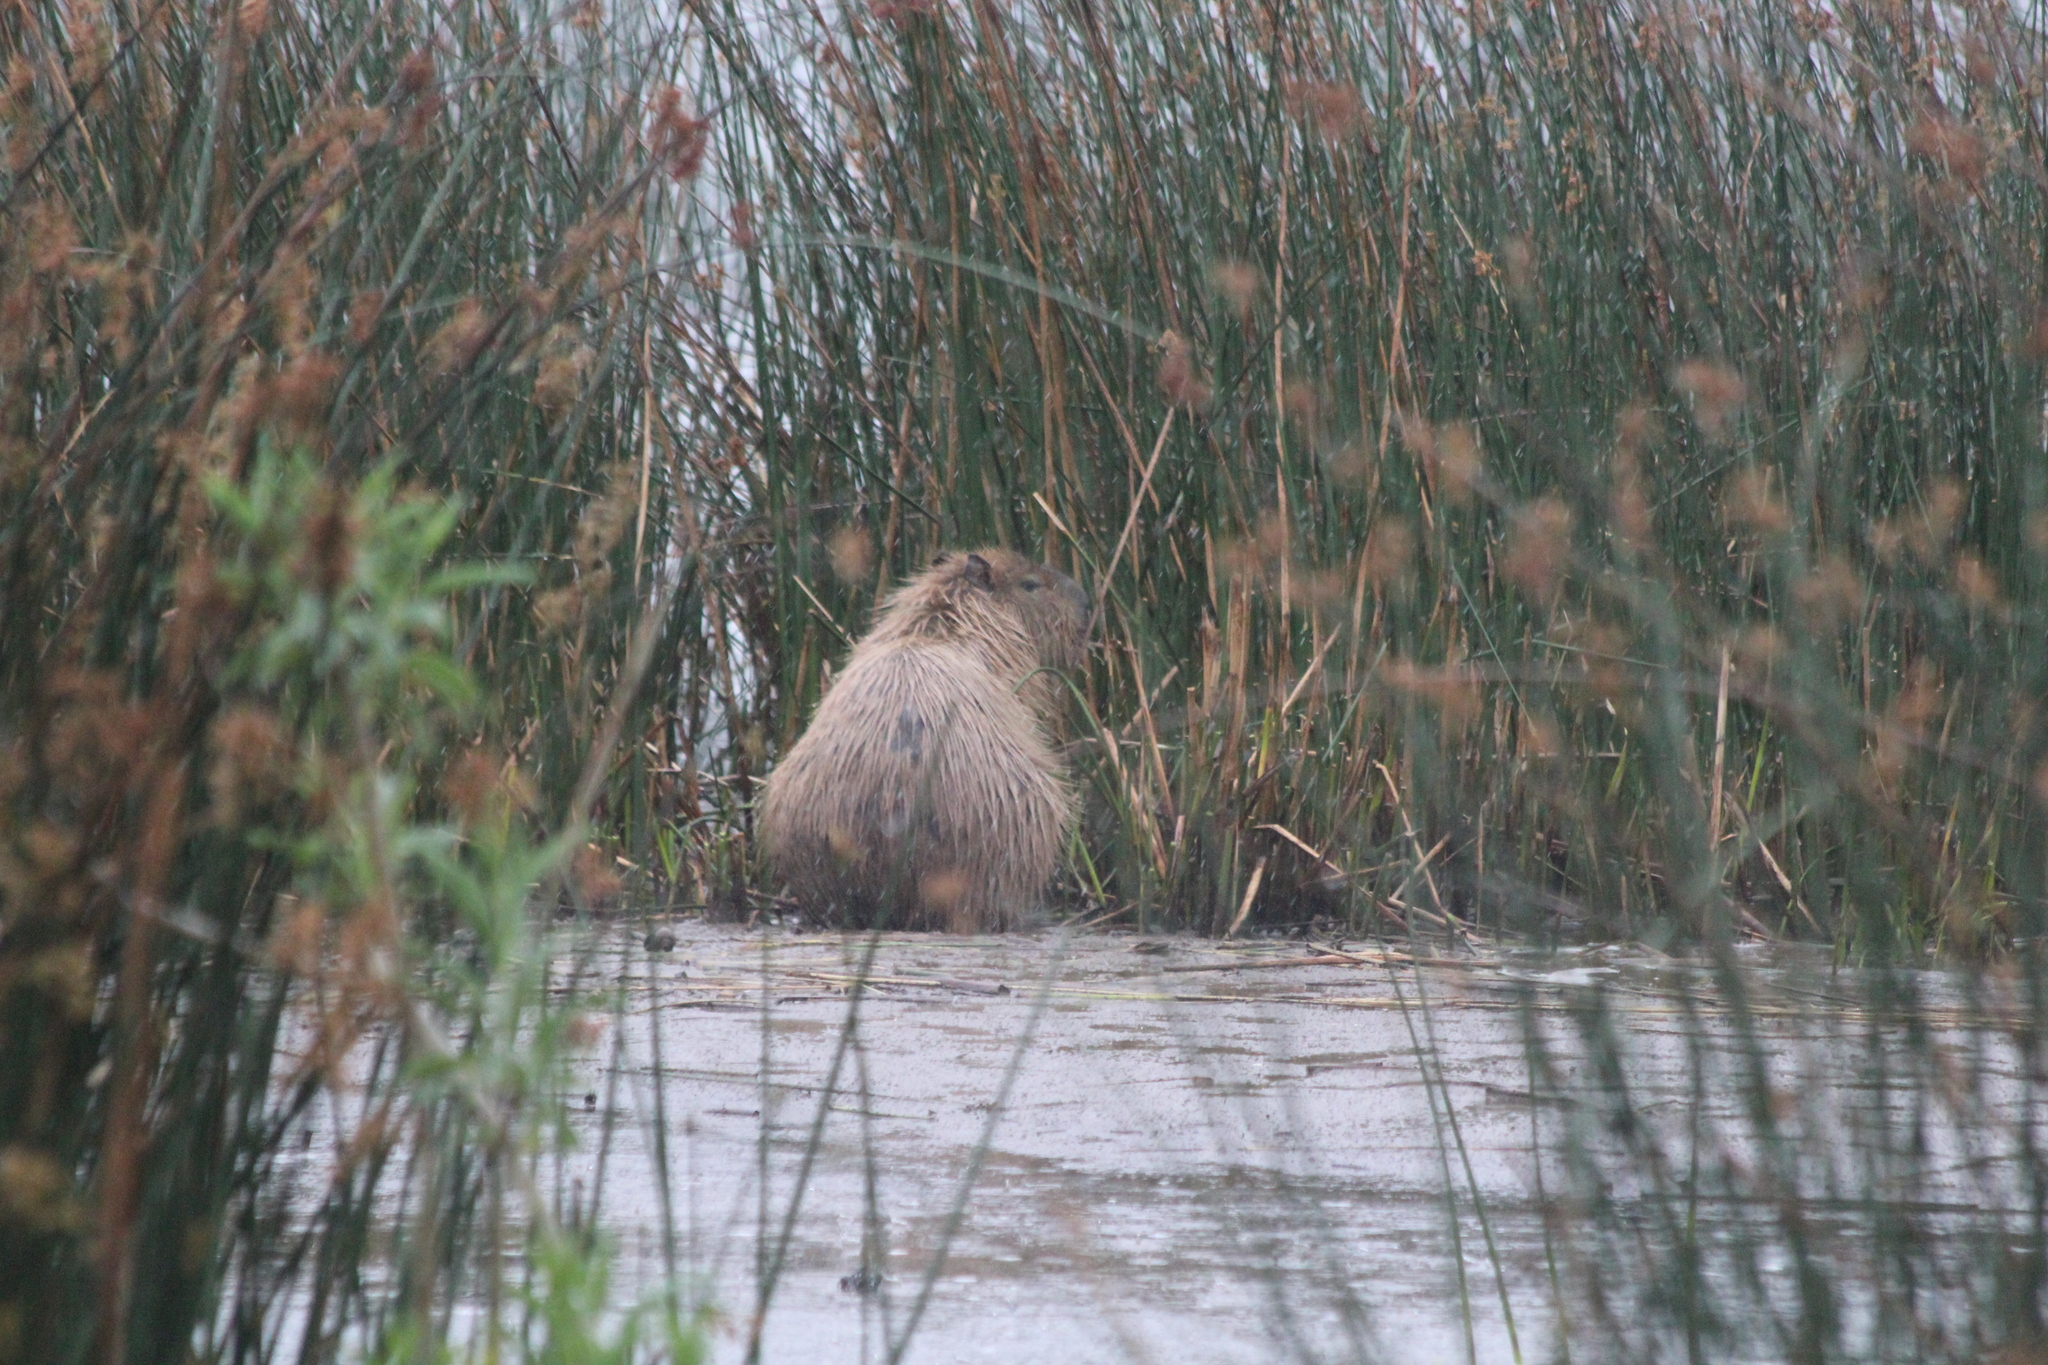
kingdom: Animalia
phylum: Chordata
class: Mammalia
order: Rodentia
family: Caviidae
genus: Hydrochoerus
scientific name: Hydrochoerus hydrochaeris
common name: Capybara
